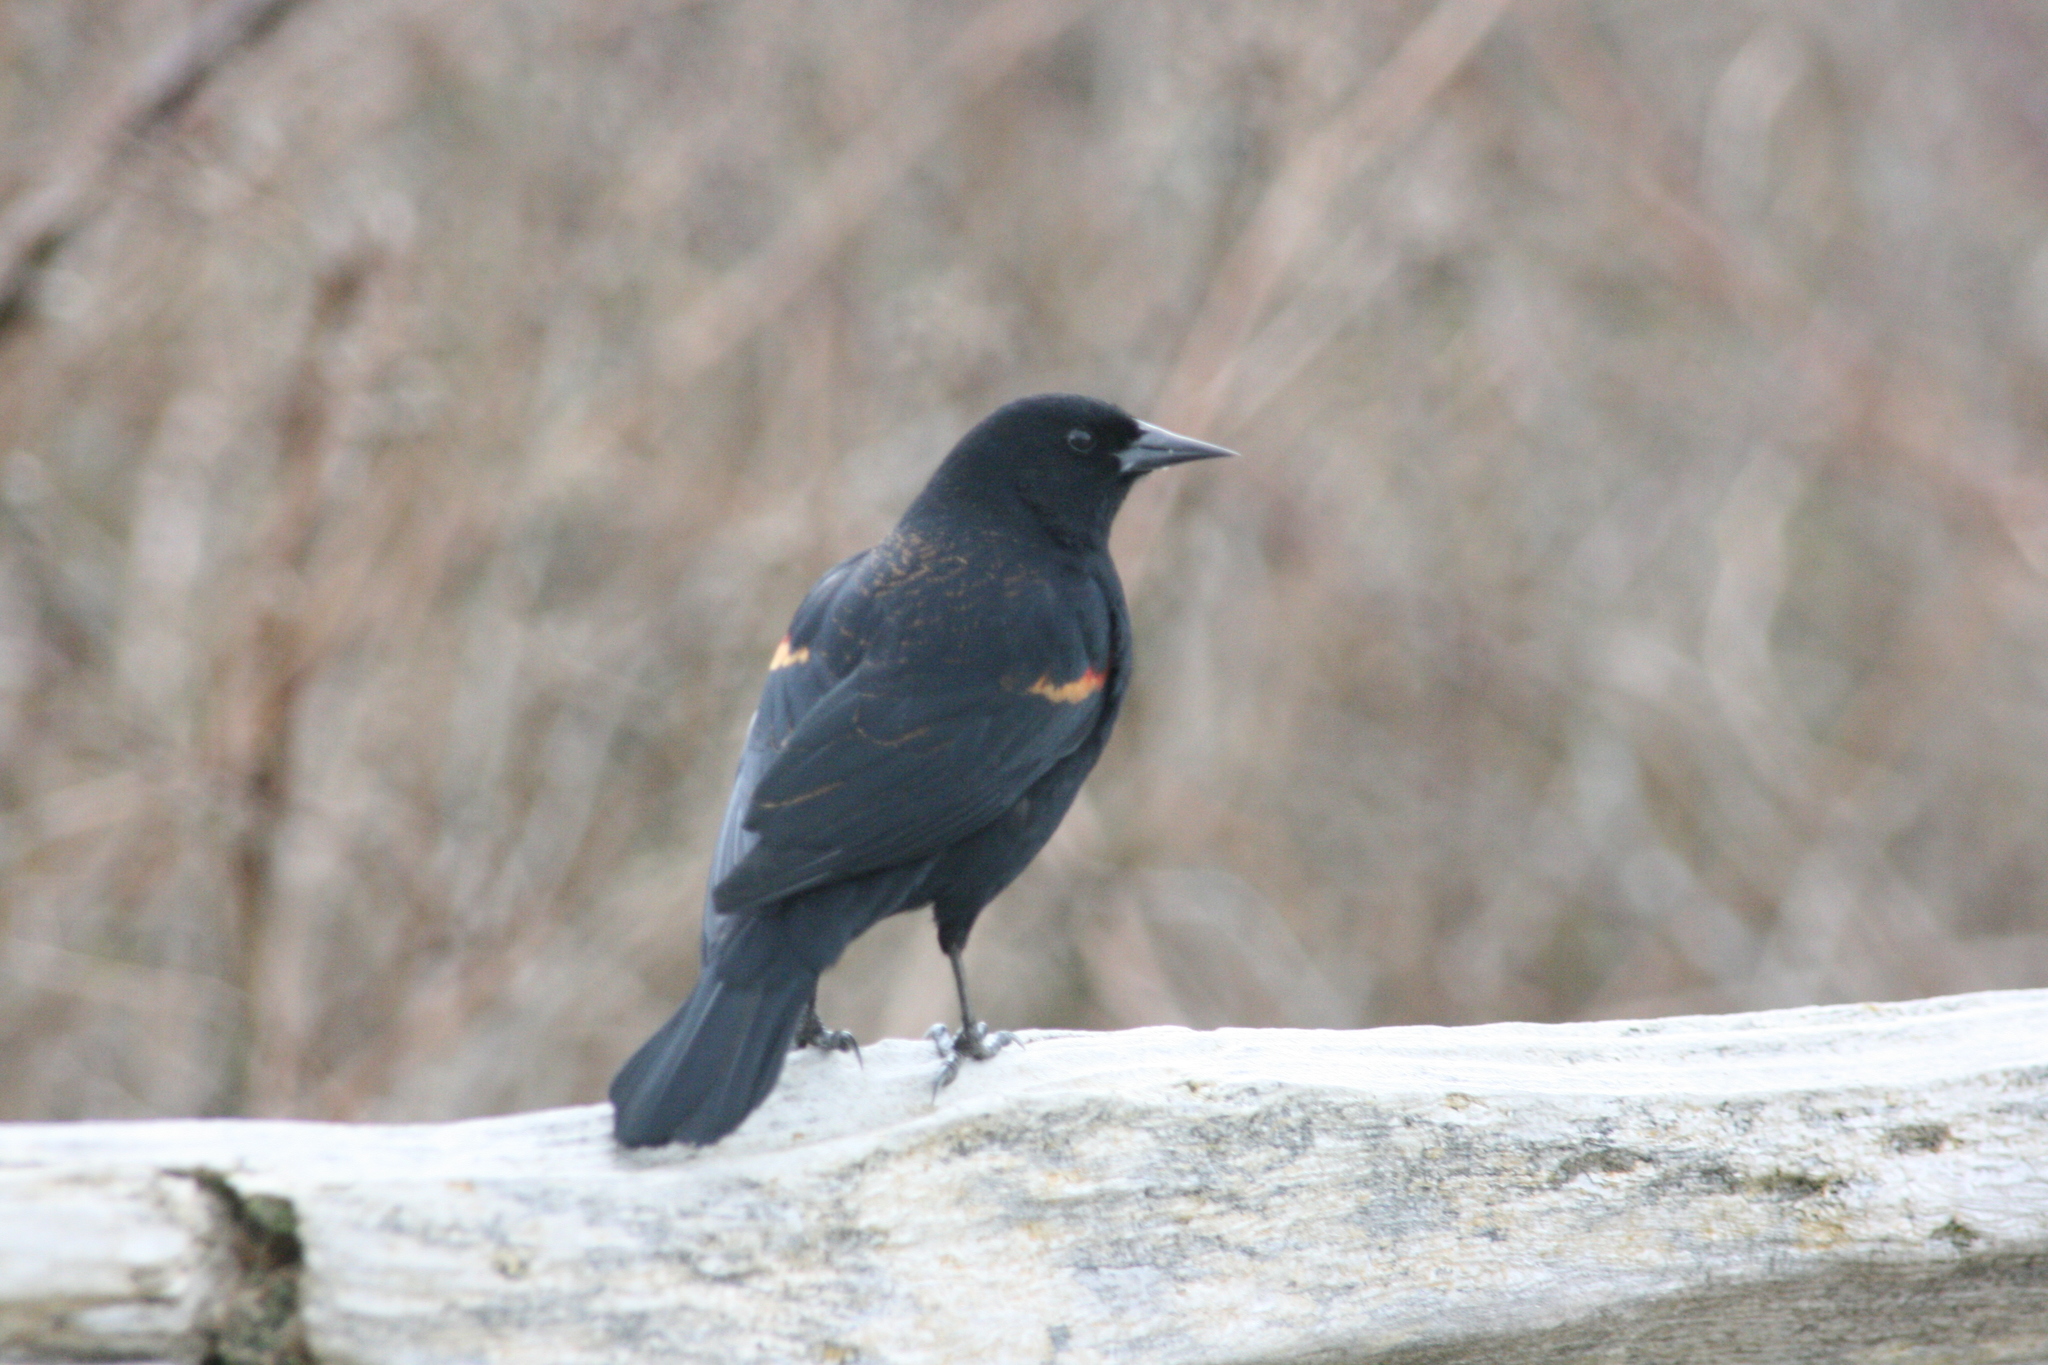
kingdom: Animalia
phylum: Chordata
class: Aves
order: Passeriformes
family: Icteridae
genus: Agelaius
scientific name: Agelaius phoeniceus
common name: Red-winged blackbird
